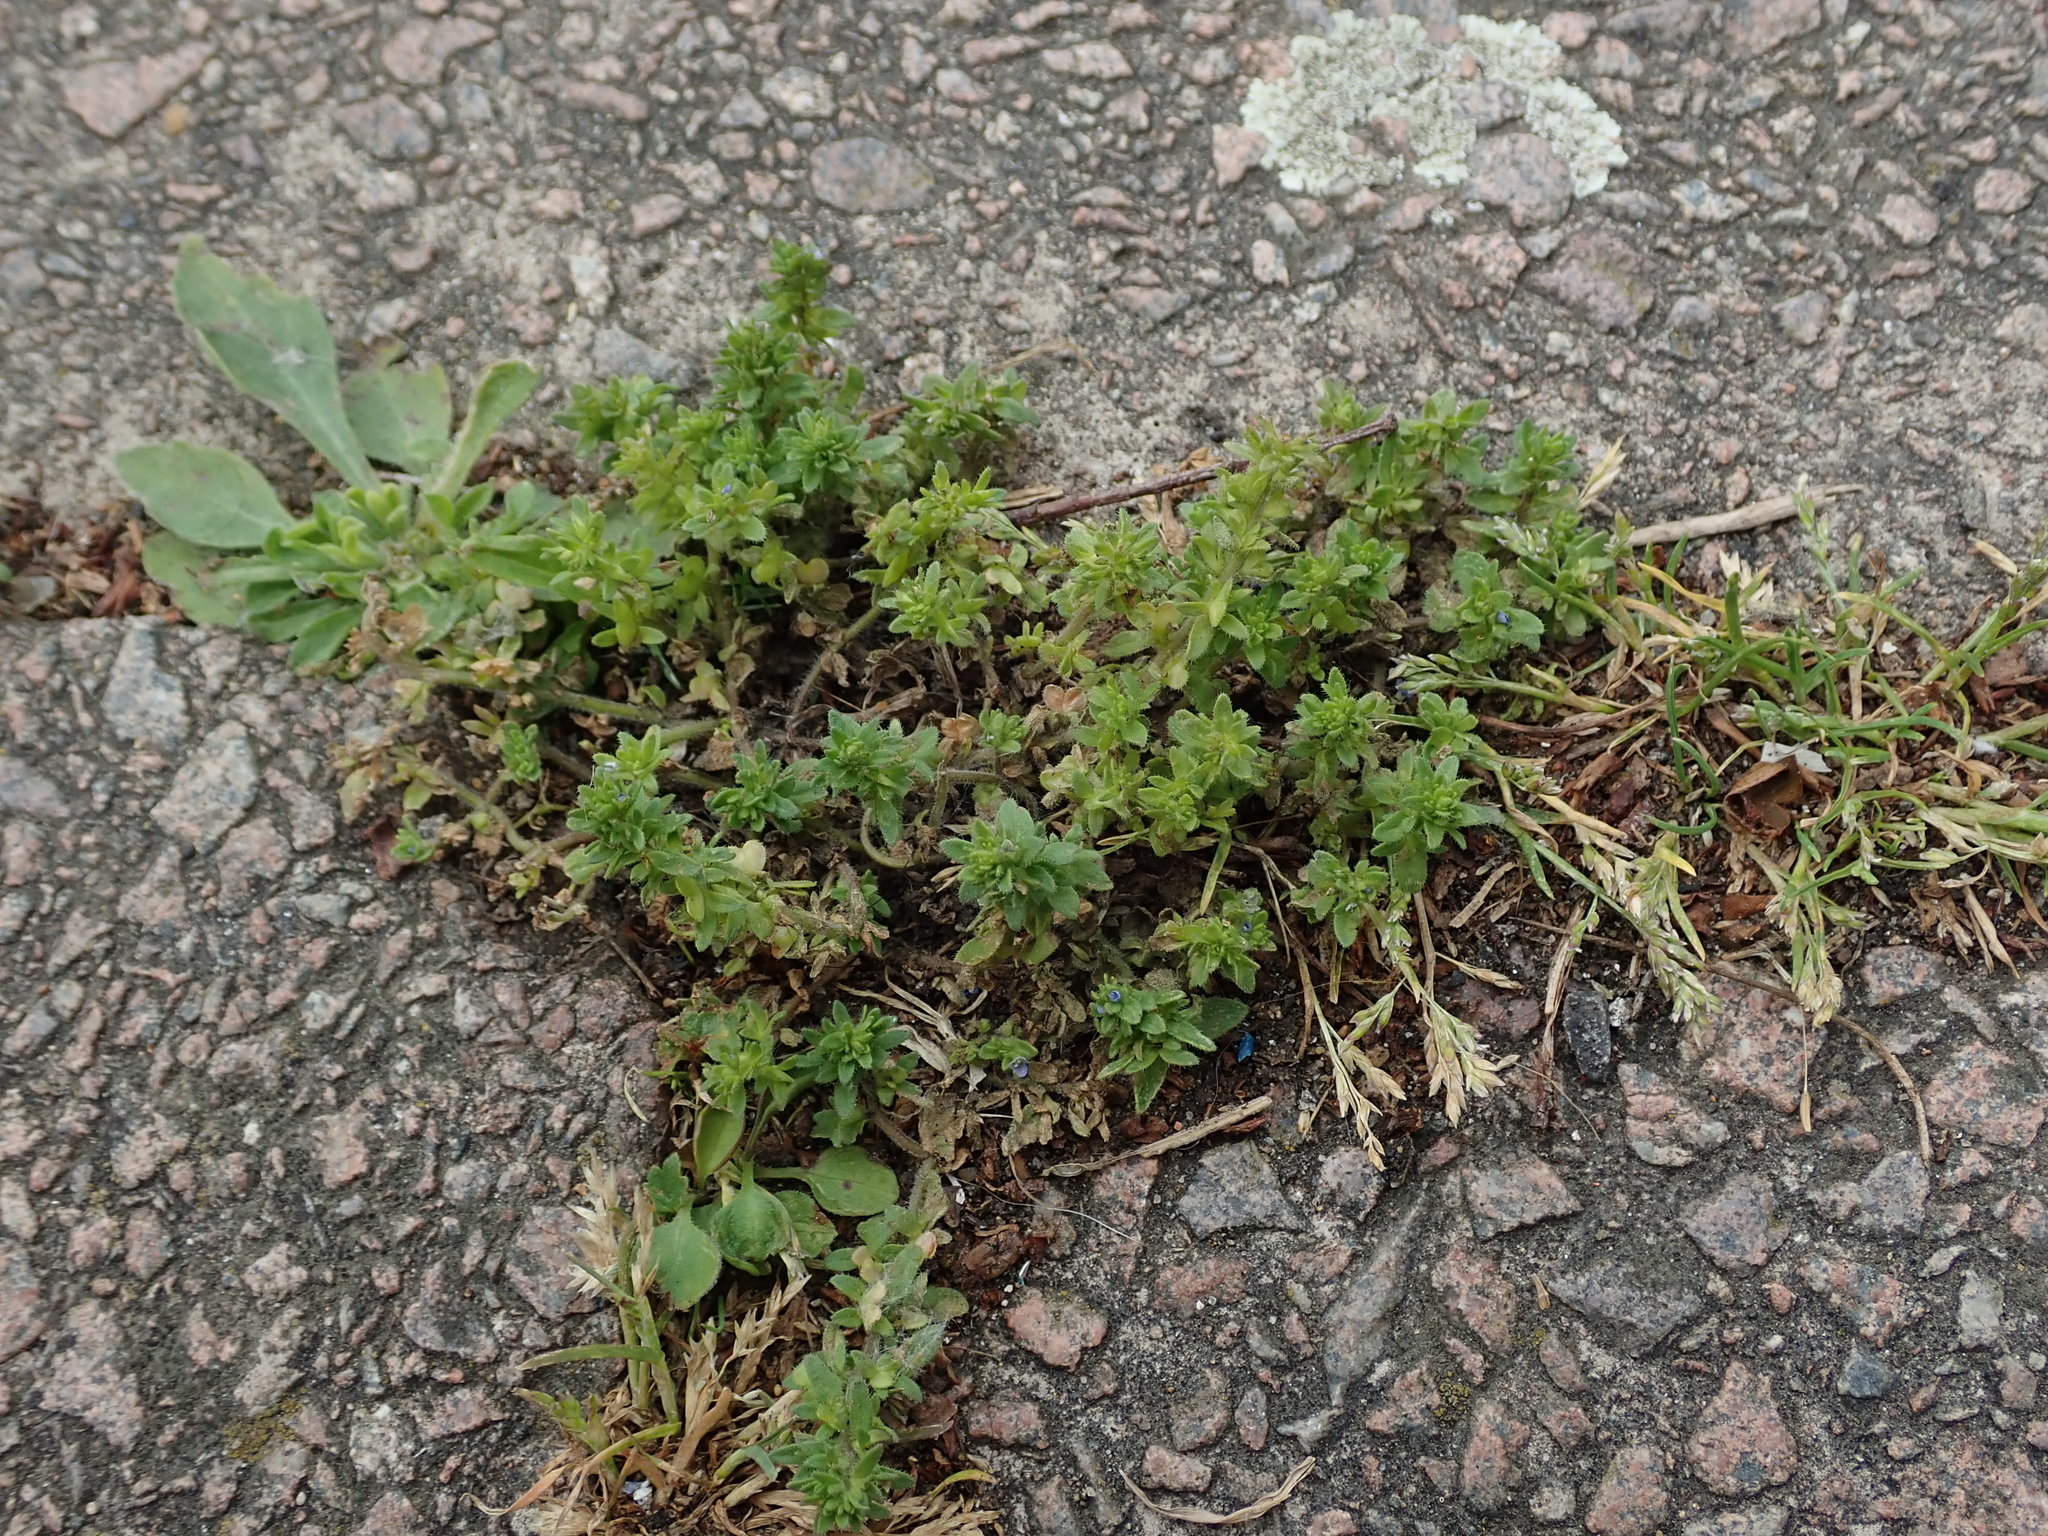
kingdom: Plantae
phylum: Tracheophyta
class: Magnoliopsida
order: Lamiales
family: Plantaginaceae
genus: Veronica
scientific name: Veronica arvensis
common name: Corn speedwell
